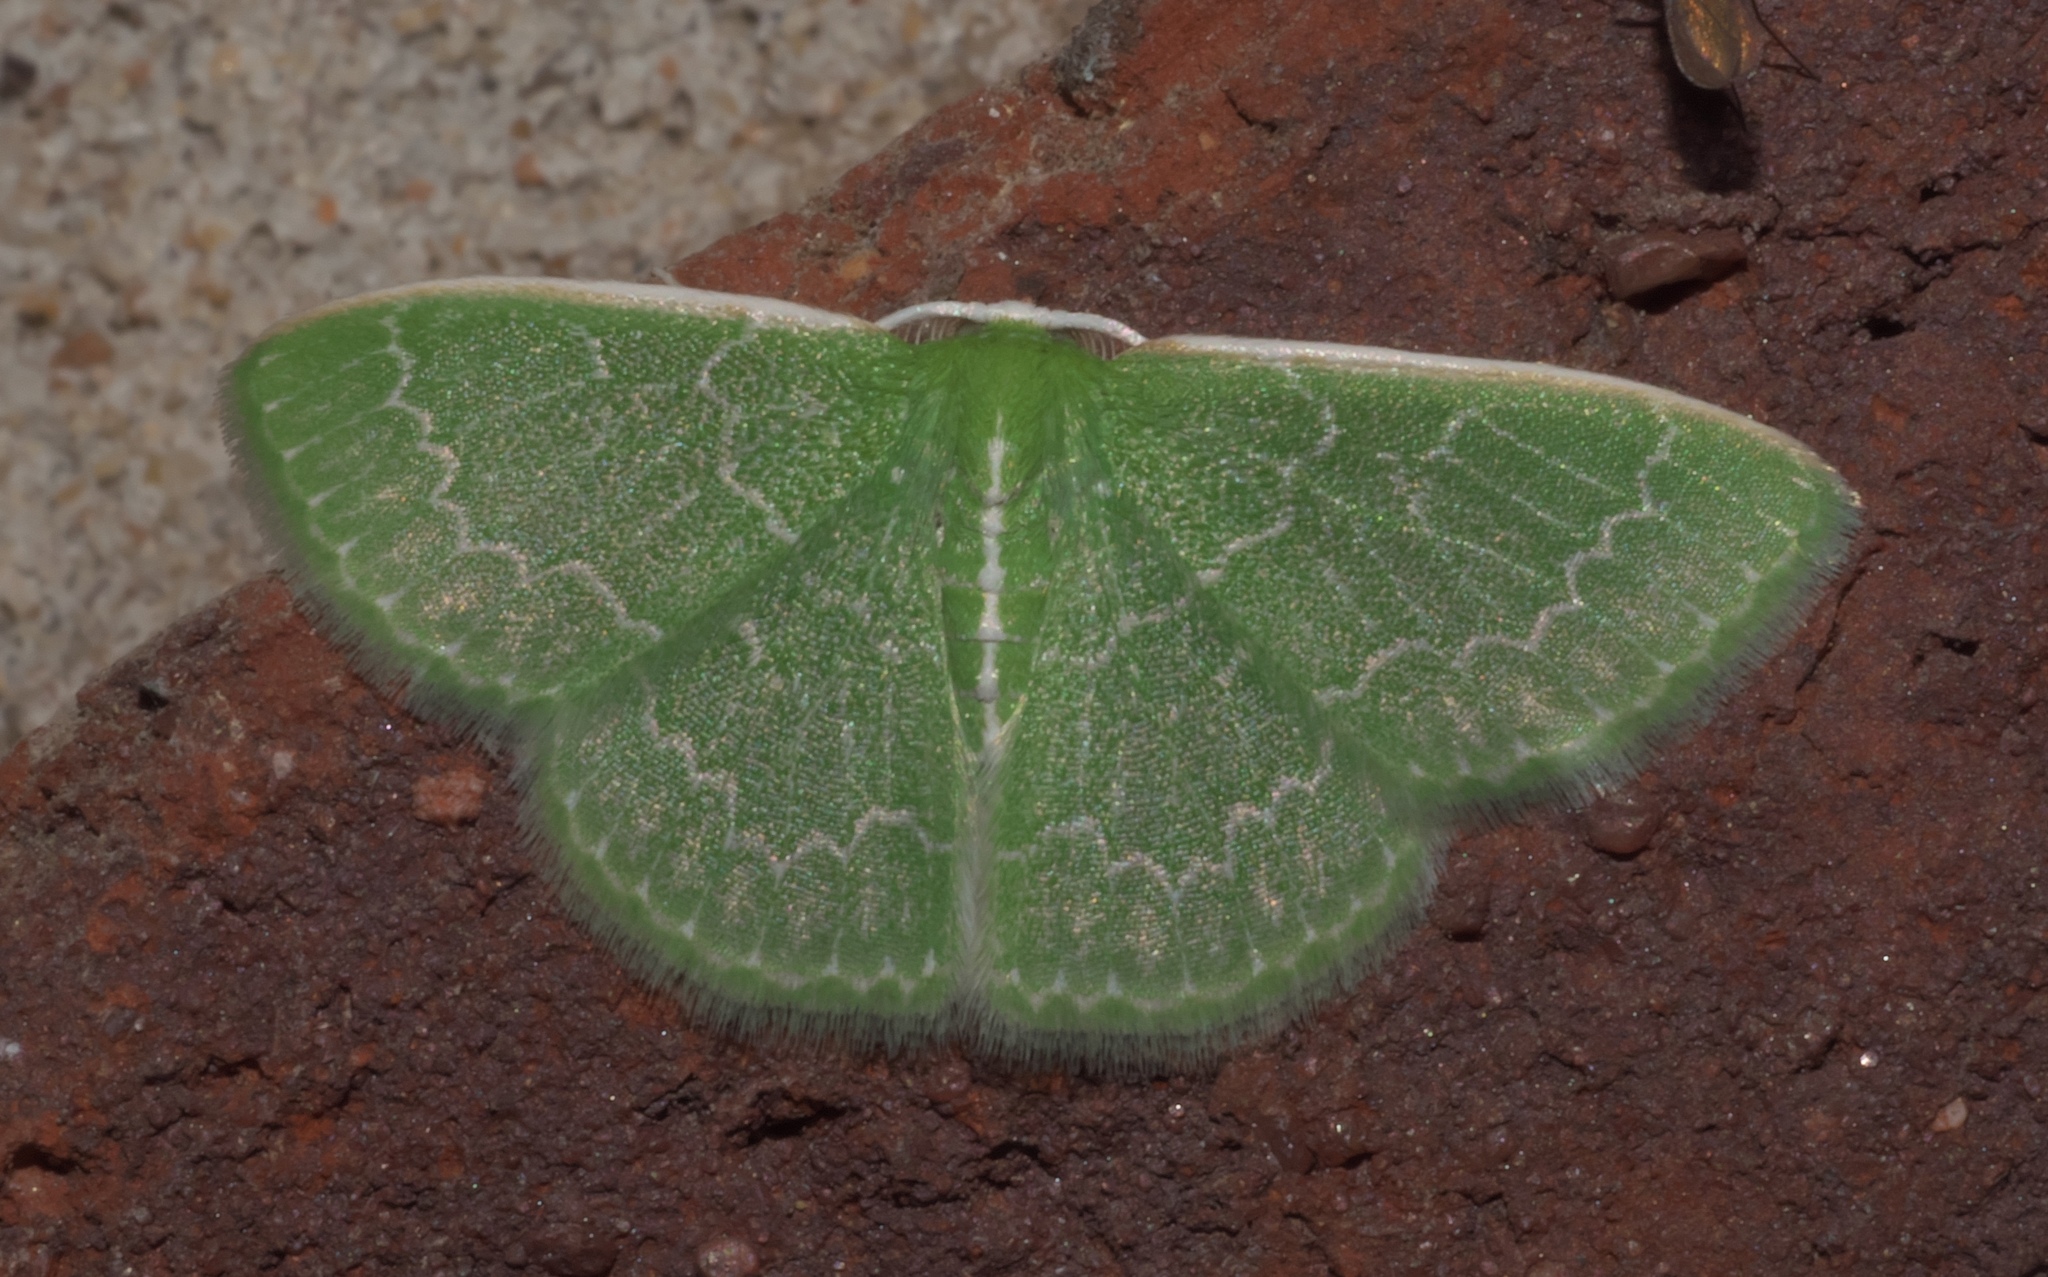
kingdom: Animalia
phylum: Arthropoda
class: Insecta
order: Lepidoptera
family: Geometridae
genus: Synchlora
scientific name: Synchlora frondaria
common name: Southern emerald
